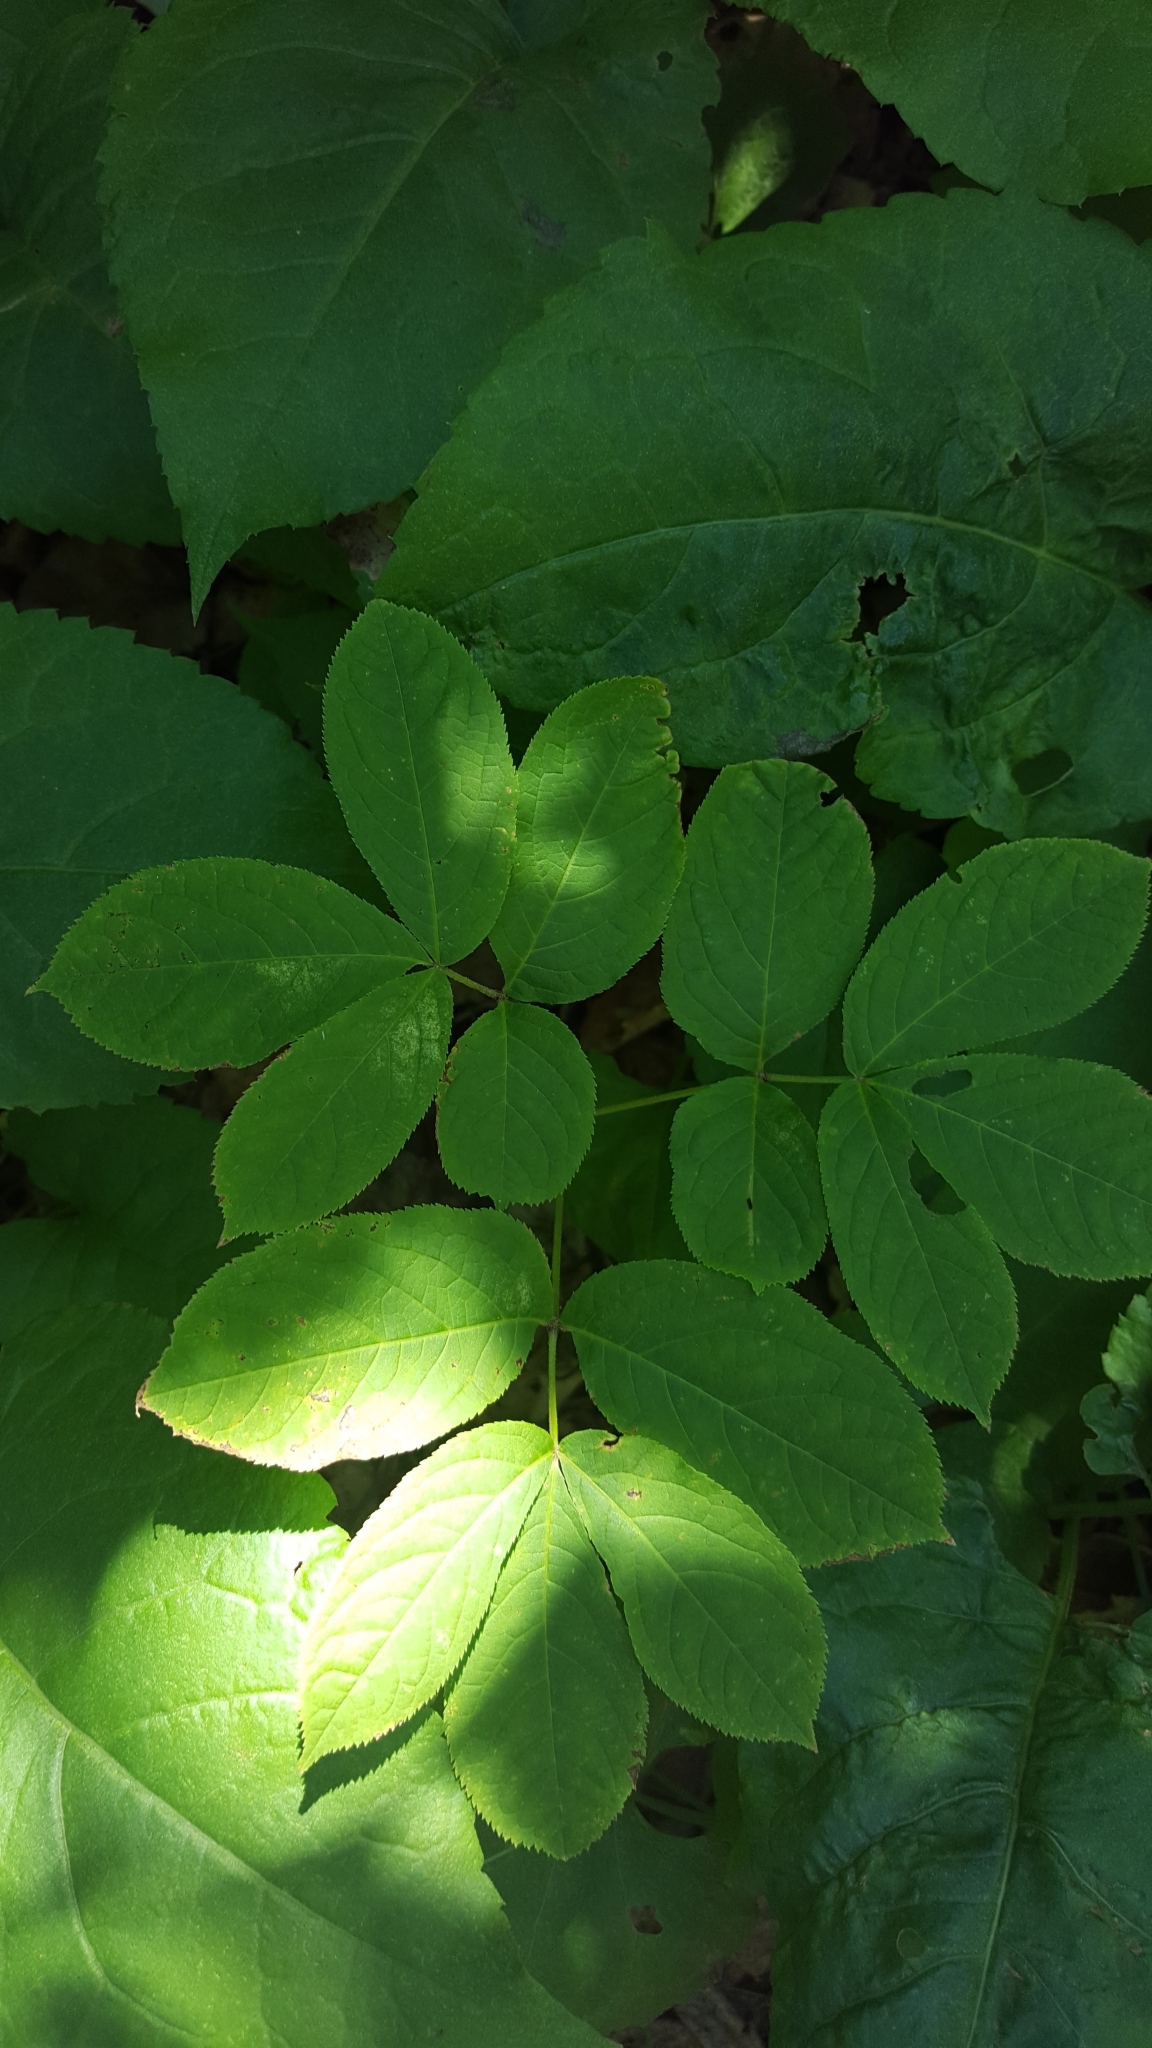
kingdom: Plantae
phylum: Tracheophyta
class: Magnoliopsida
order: Apiales
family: Araliaceae
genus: Aralia
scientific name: Aralia nudicaulis
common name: Wild sarsaparilla
